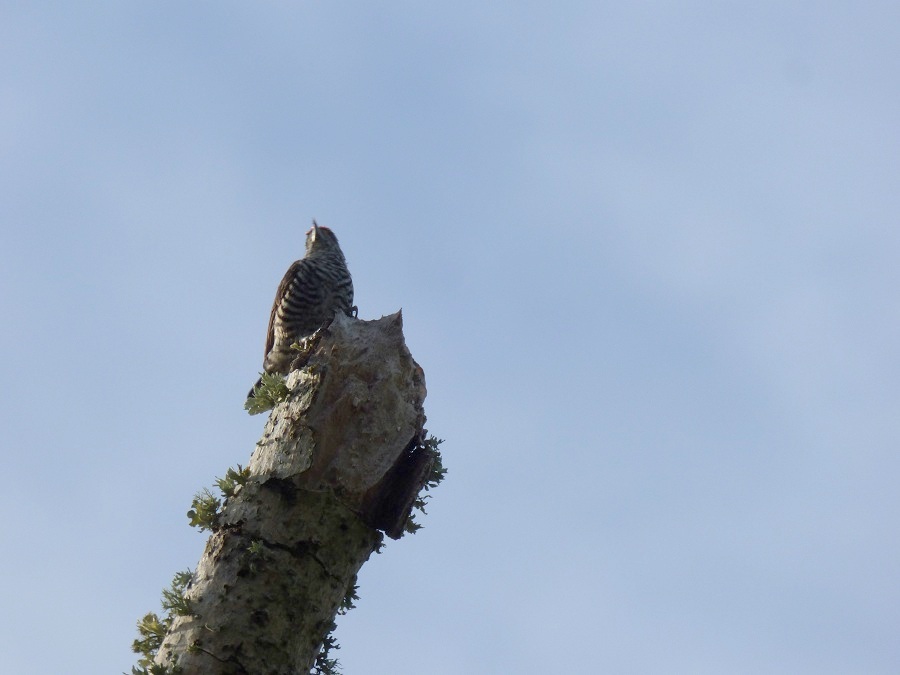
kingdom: Animalia
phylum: Chordata
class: Aves
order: Piciformes
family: Picidae
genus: Picumnus
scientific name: Picumnus cirratus
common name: White-barred piculet
